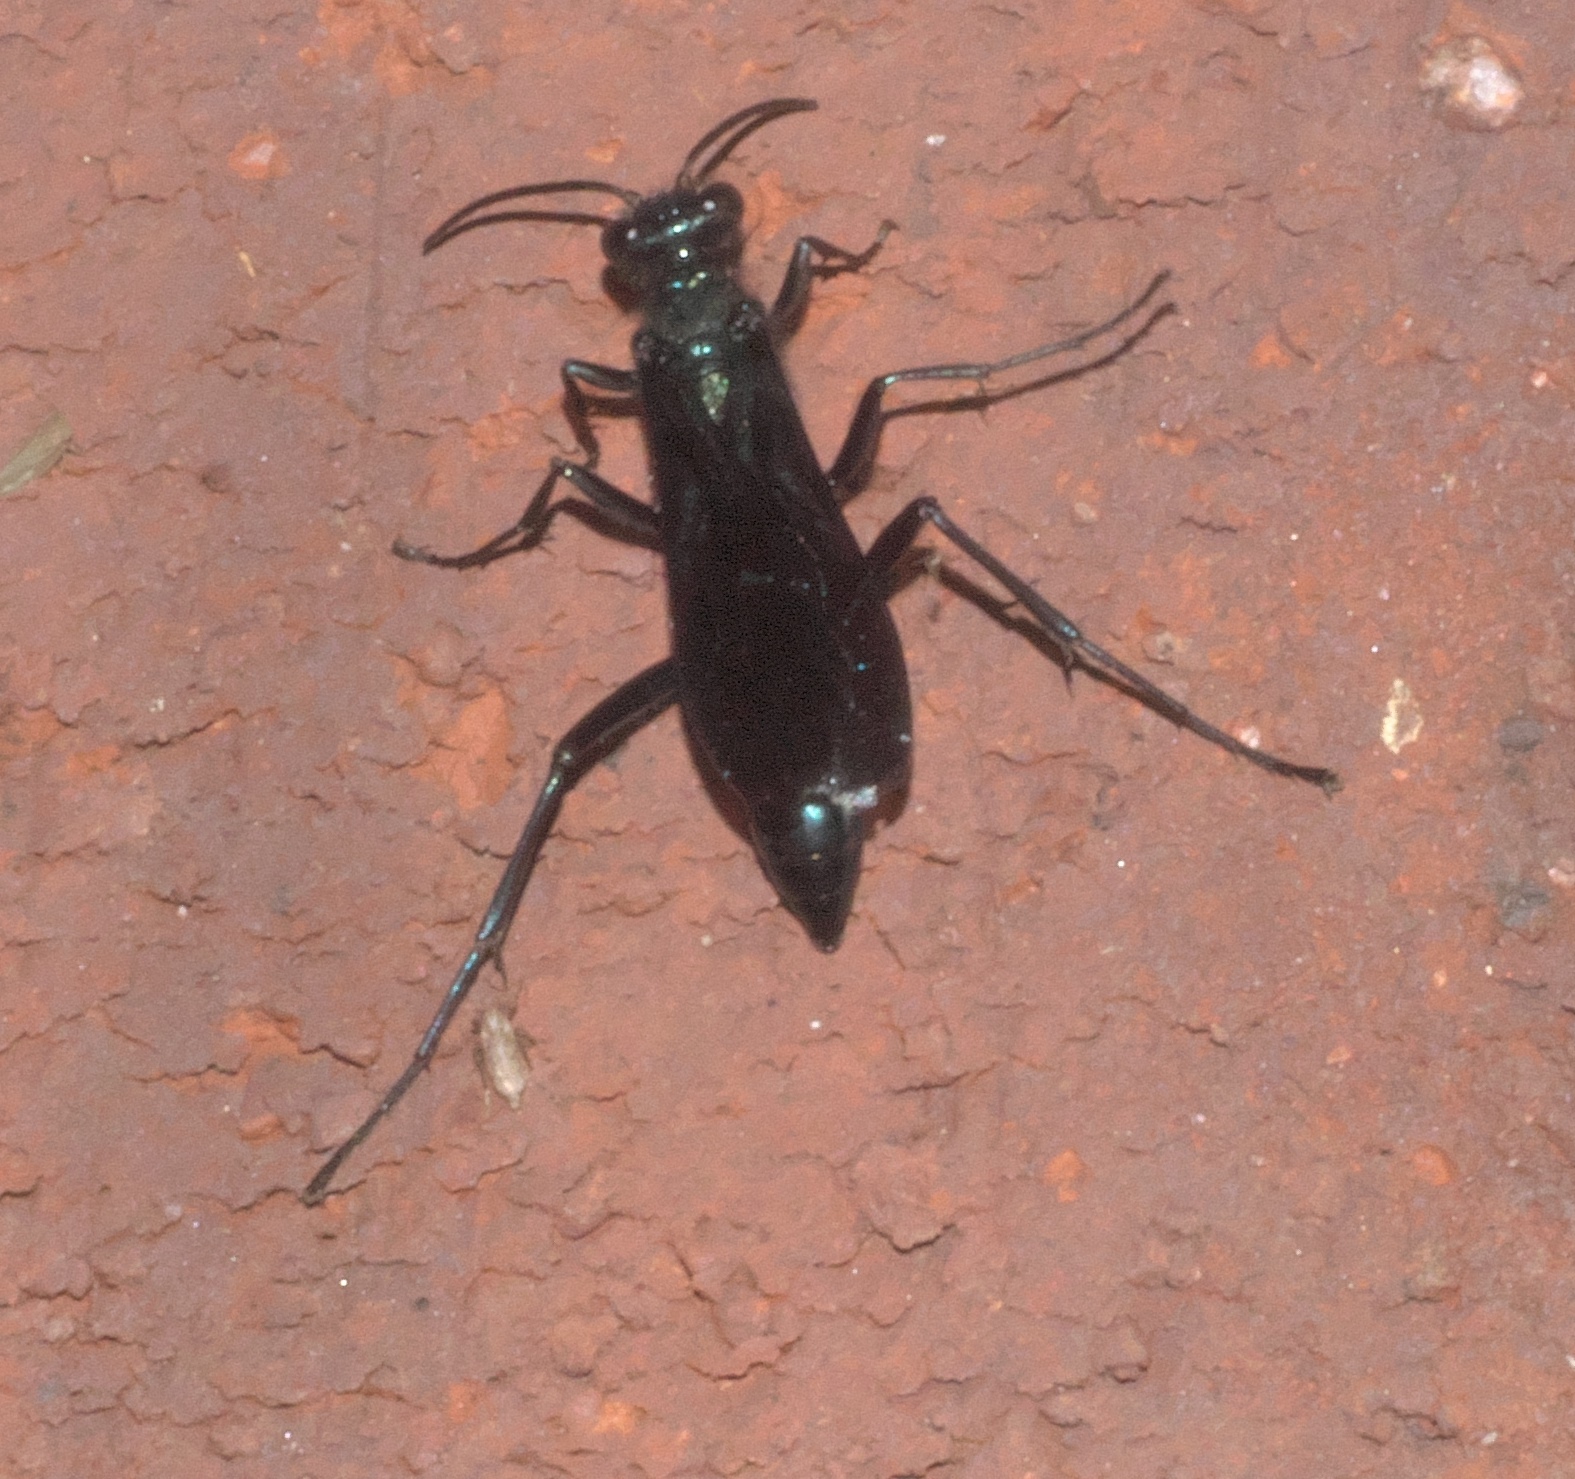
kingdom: Animalia
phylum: Arthropoda
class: Insecta
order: Hymenoptera
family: Sphecidae
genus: Chalybion
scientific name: Chalybion californicum
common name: Mud dauber
